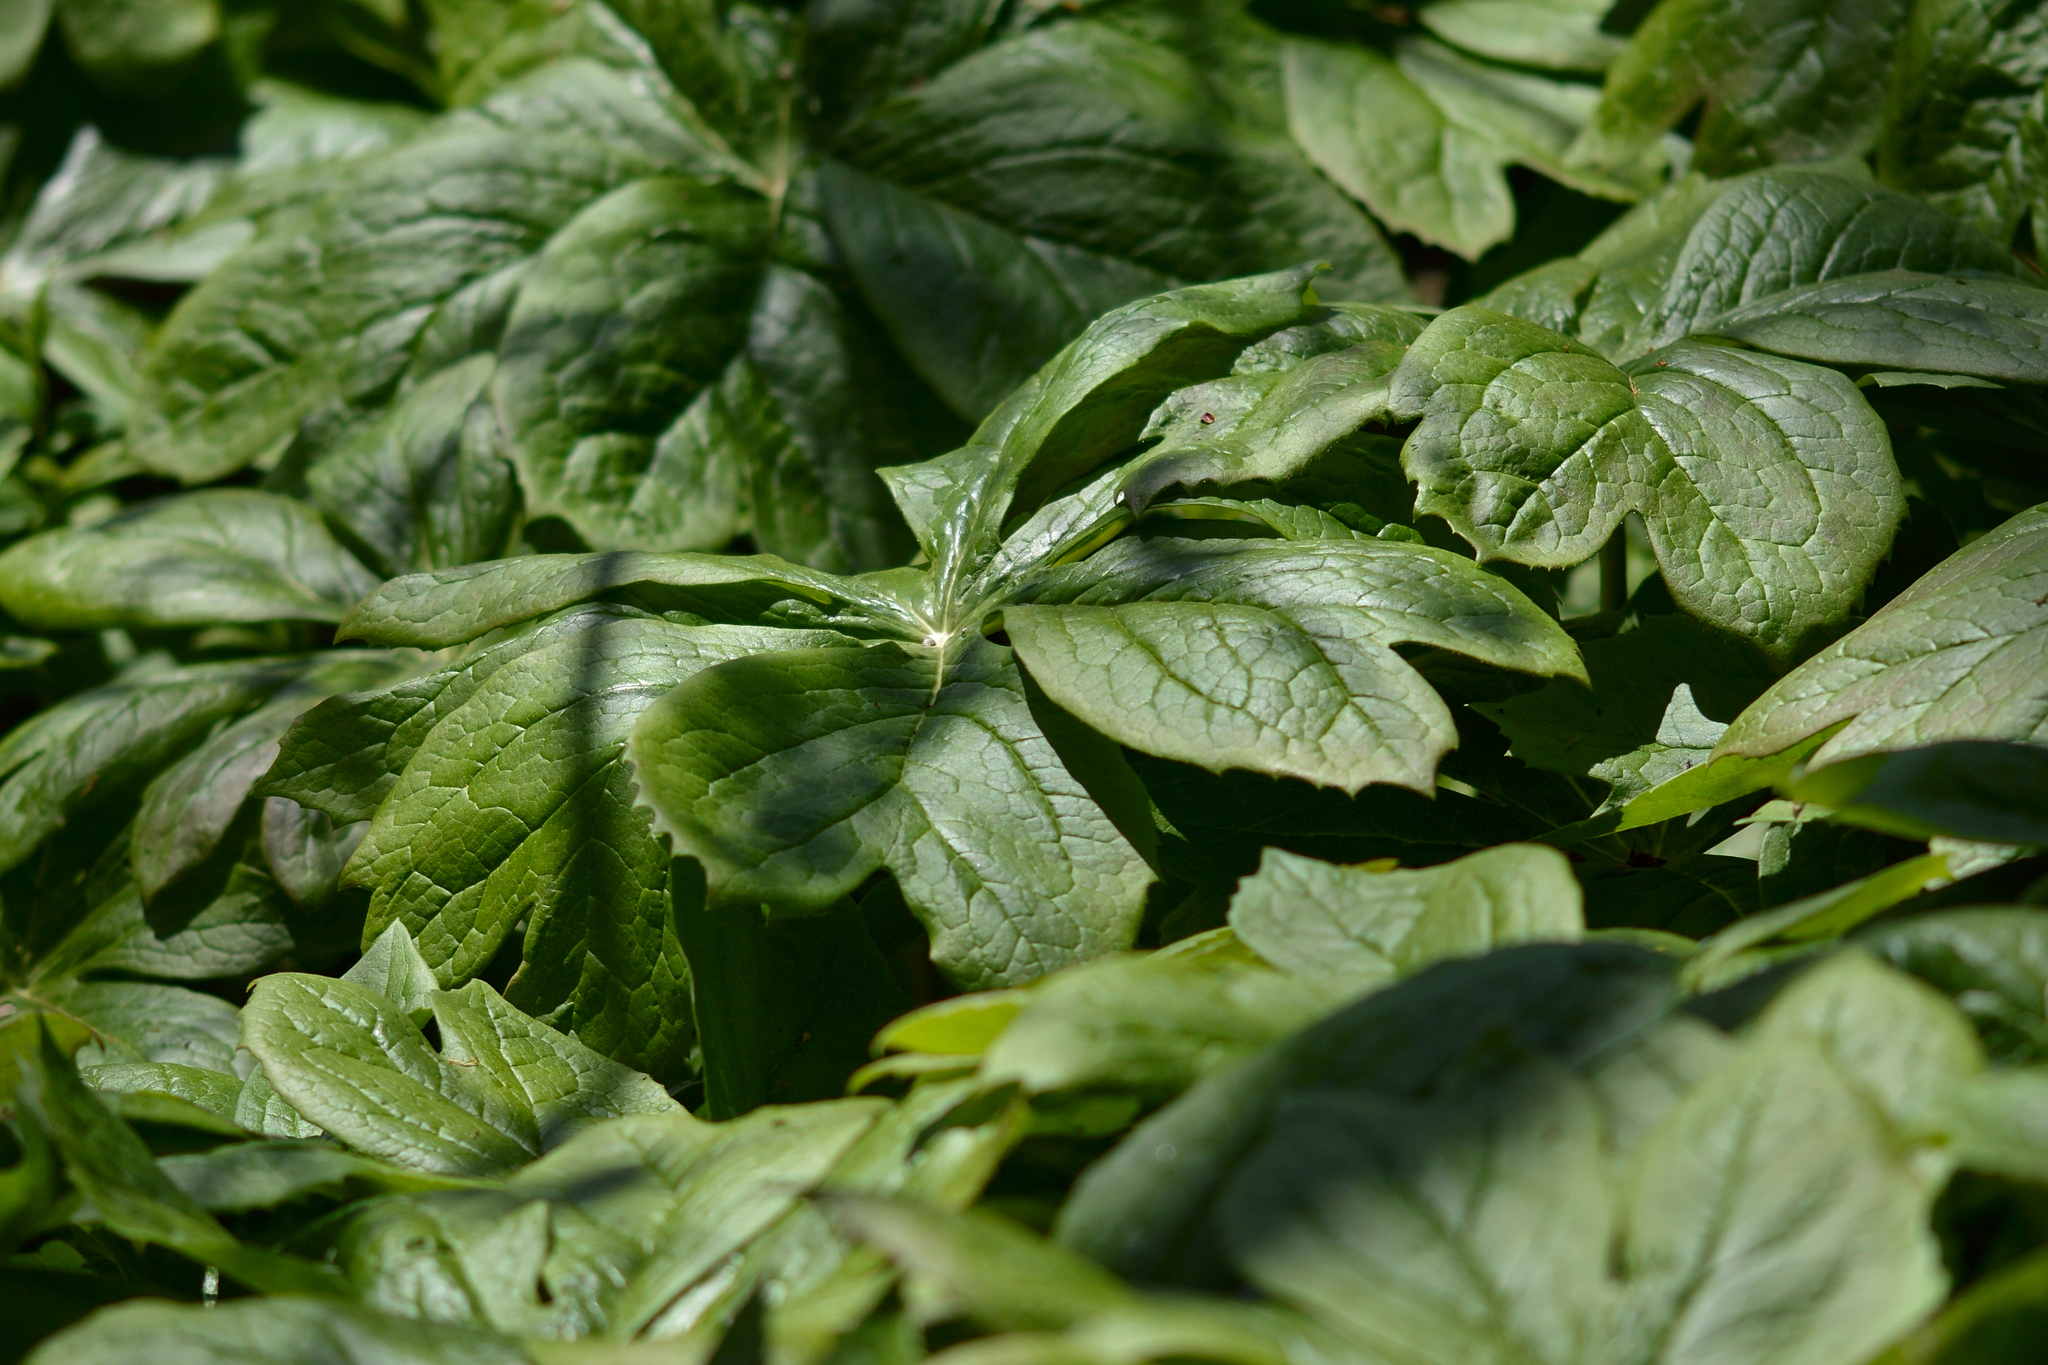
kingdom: Plantae
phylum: Tracheophyta
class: Magnoliopsida
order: Ranunculales
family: Berberidaceae
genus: Podophyllum
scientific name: Podophyllum peltatum
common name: Wild mandrake
